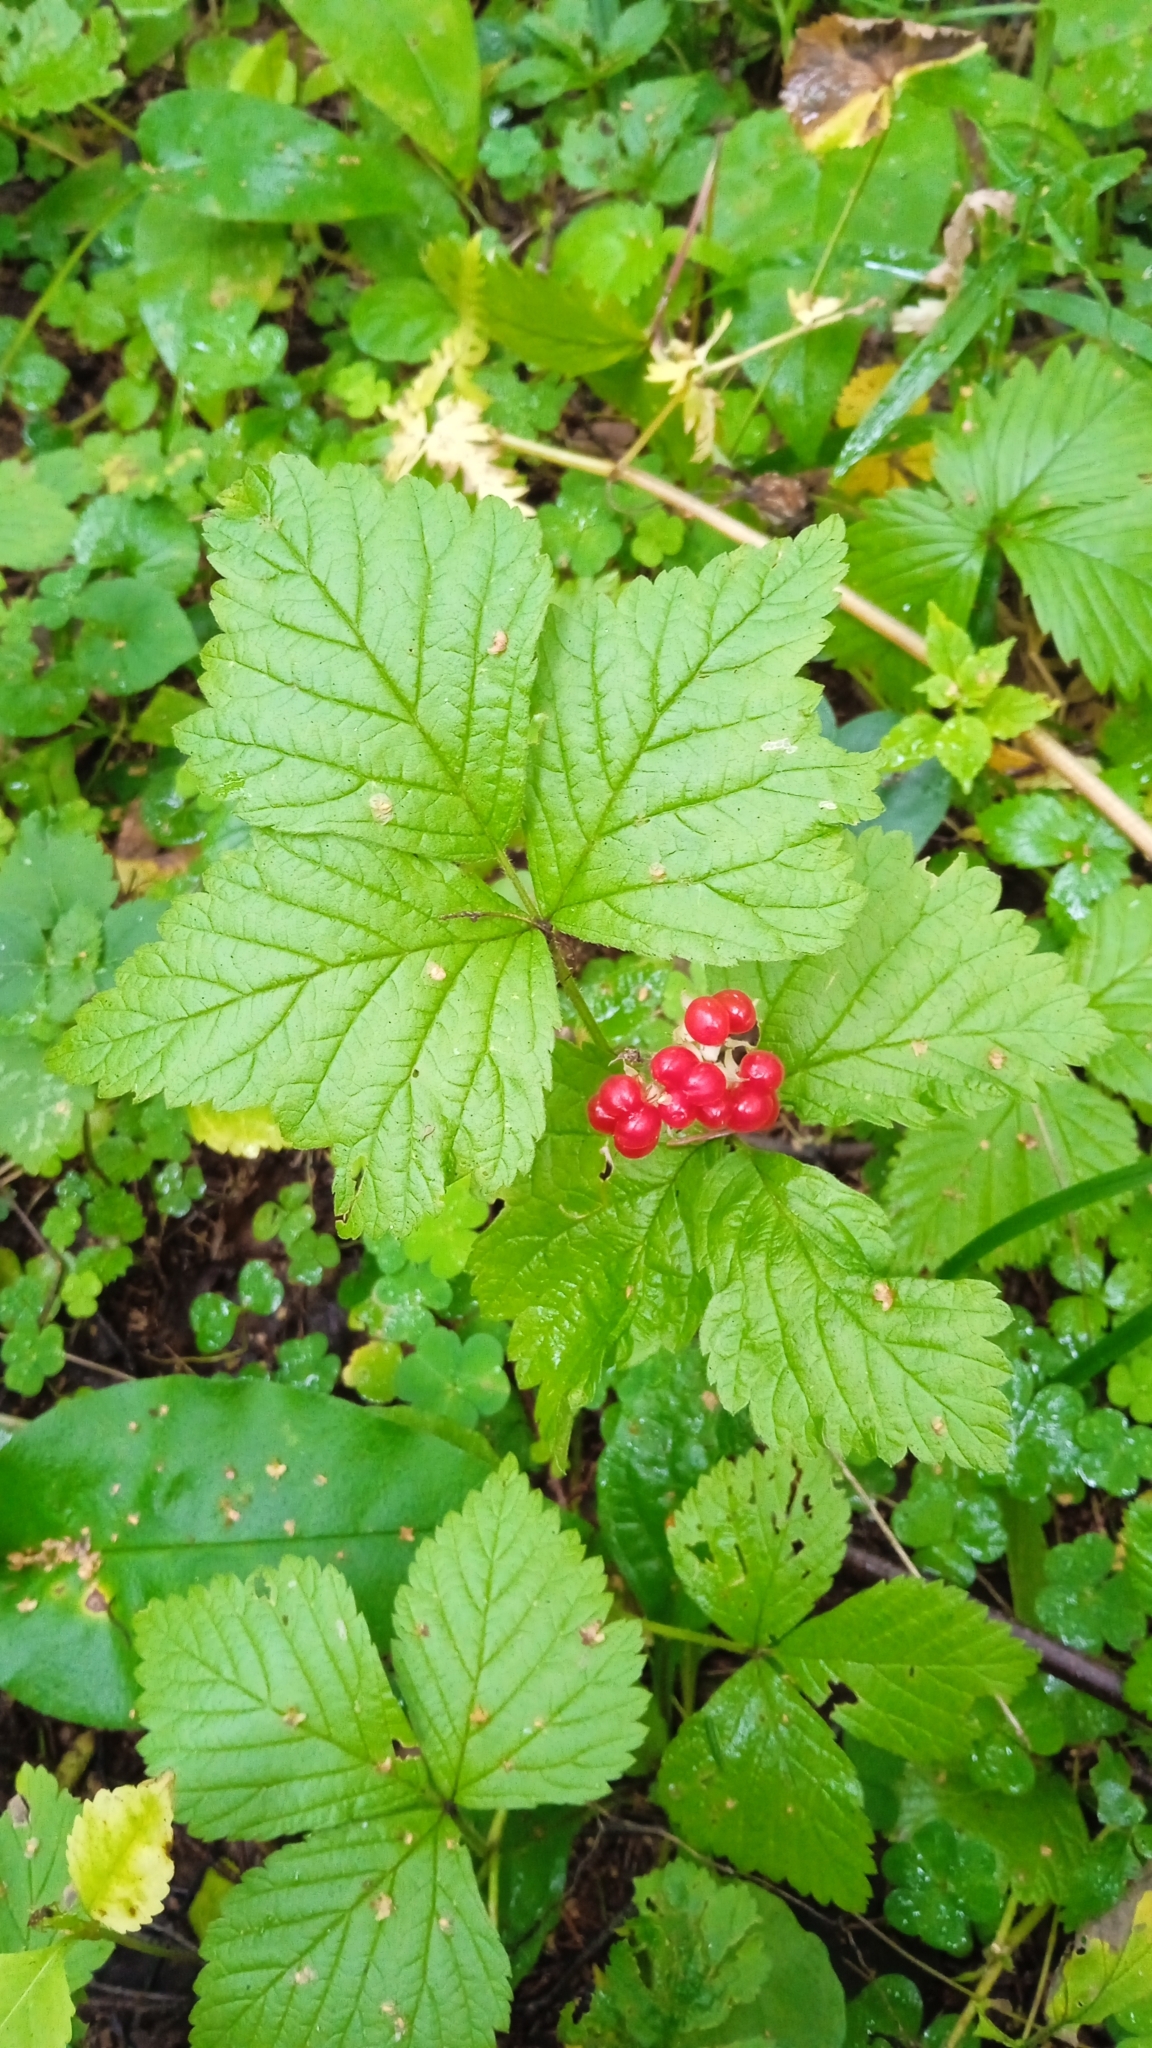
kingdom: Plantae
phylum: Tracheophyta
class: Magnoliopsida
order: Rosales
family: Rosaceae
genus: Rubus
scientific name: Rubus saxatilis
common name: Stone bramble
